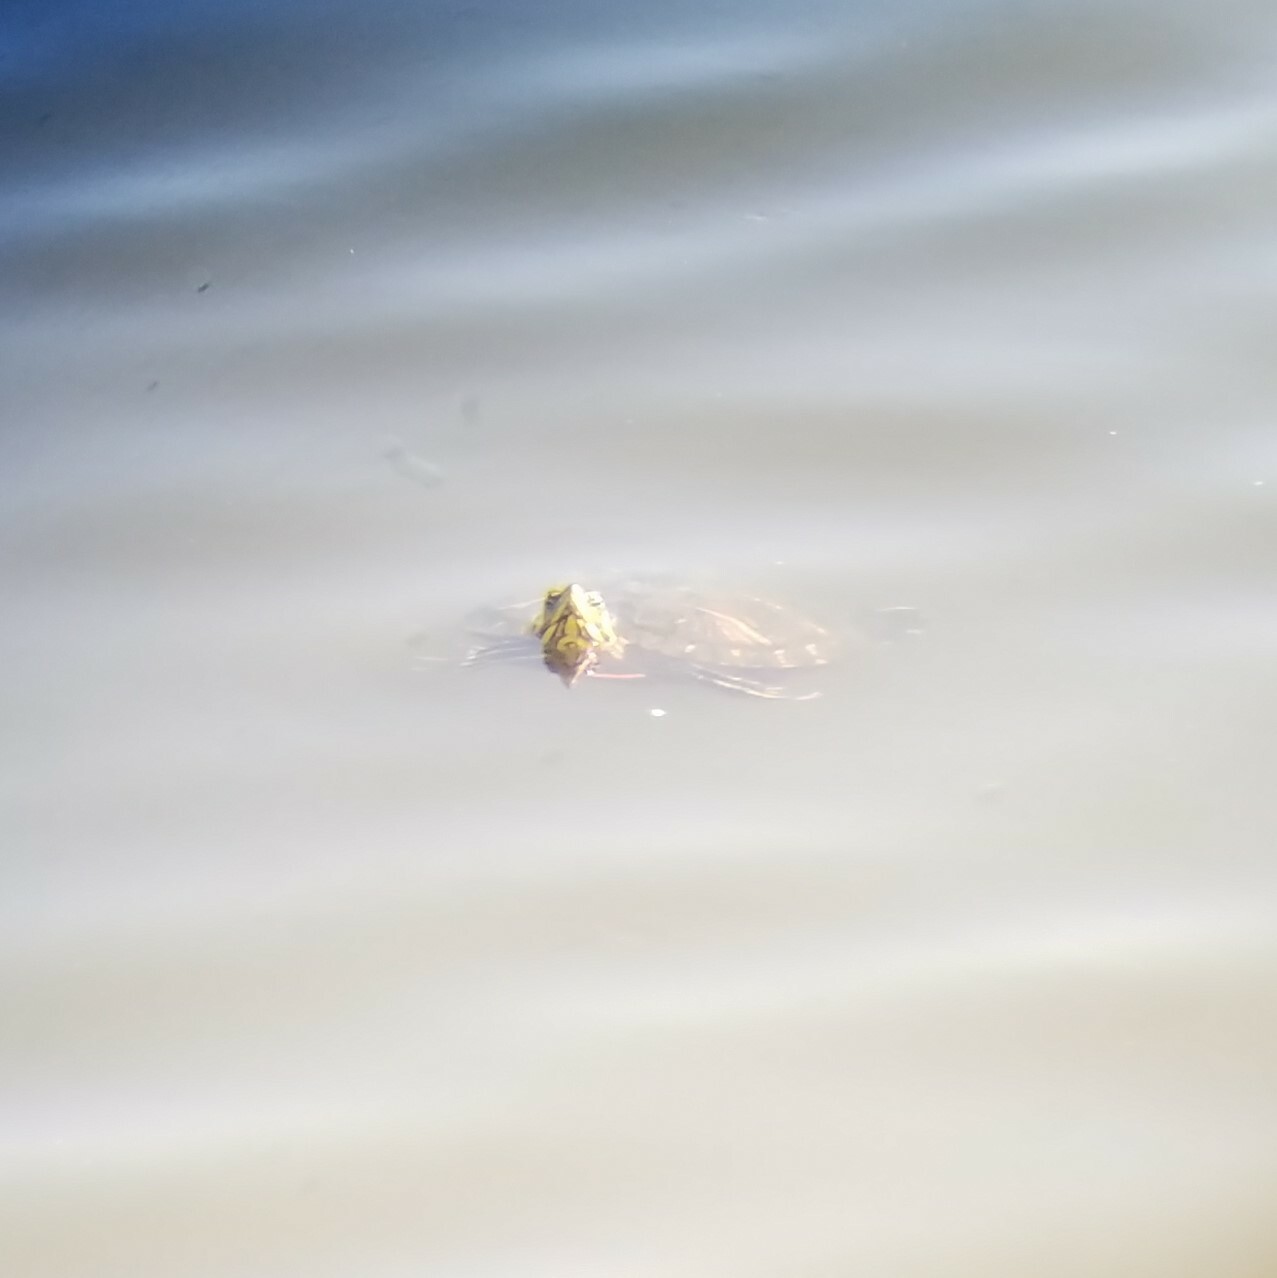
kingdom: Animalia
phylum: Chordata
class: Testudines
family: Emydidae
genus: Trachemys
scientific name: Trachemys scripta
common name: Slider
